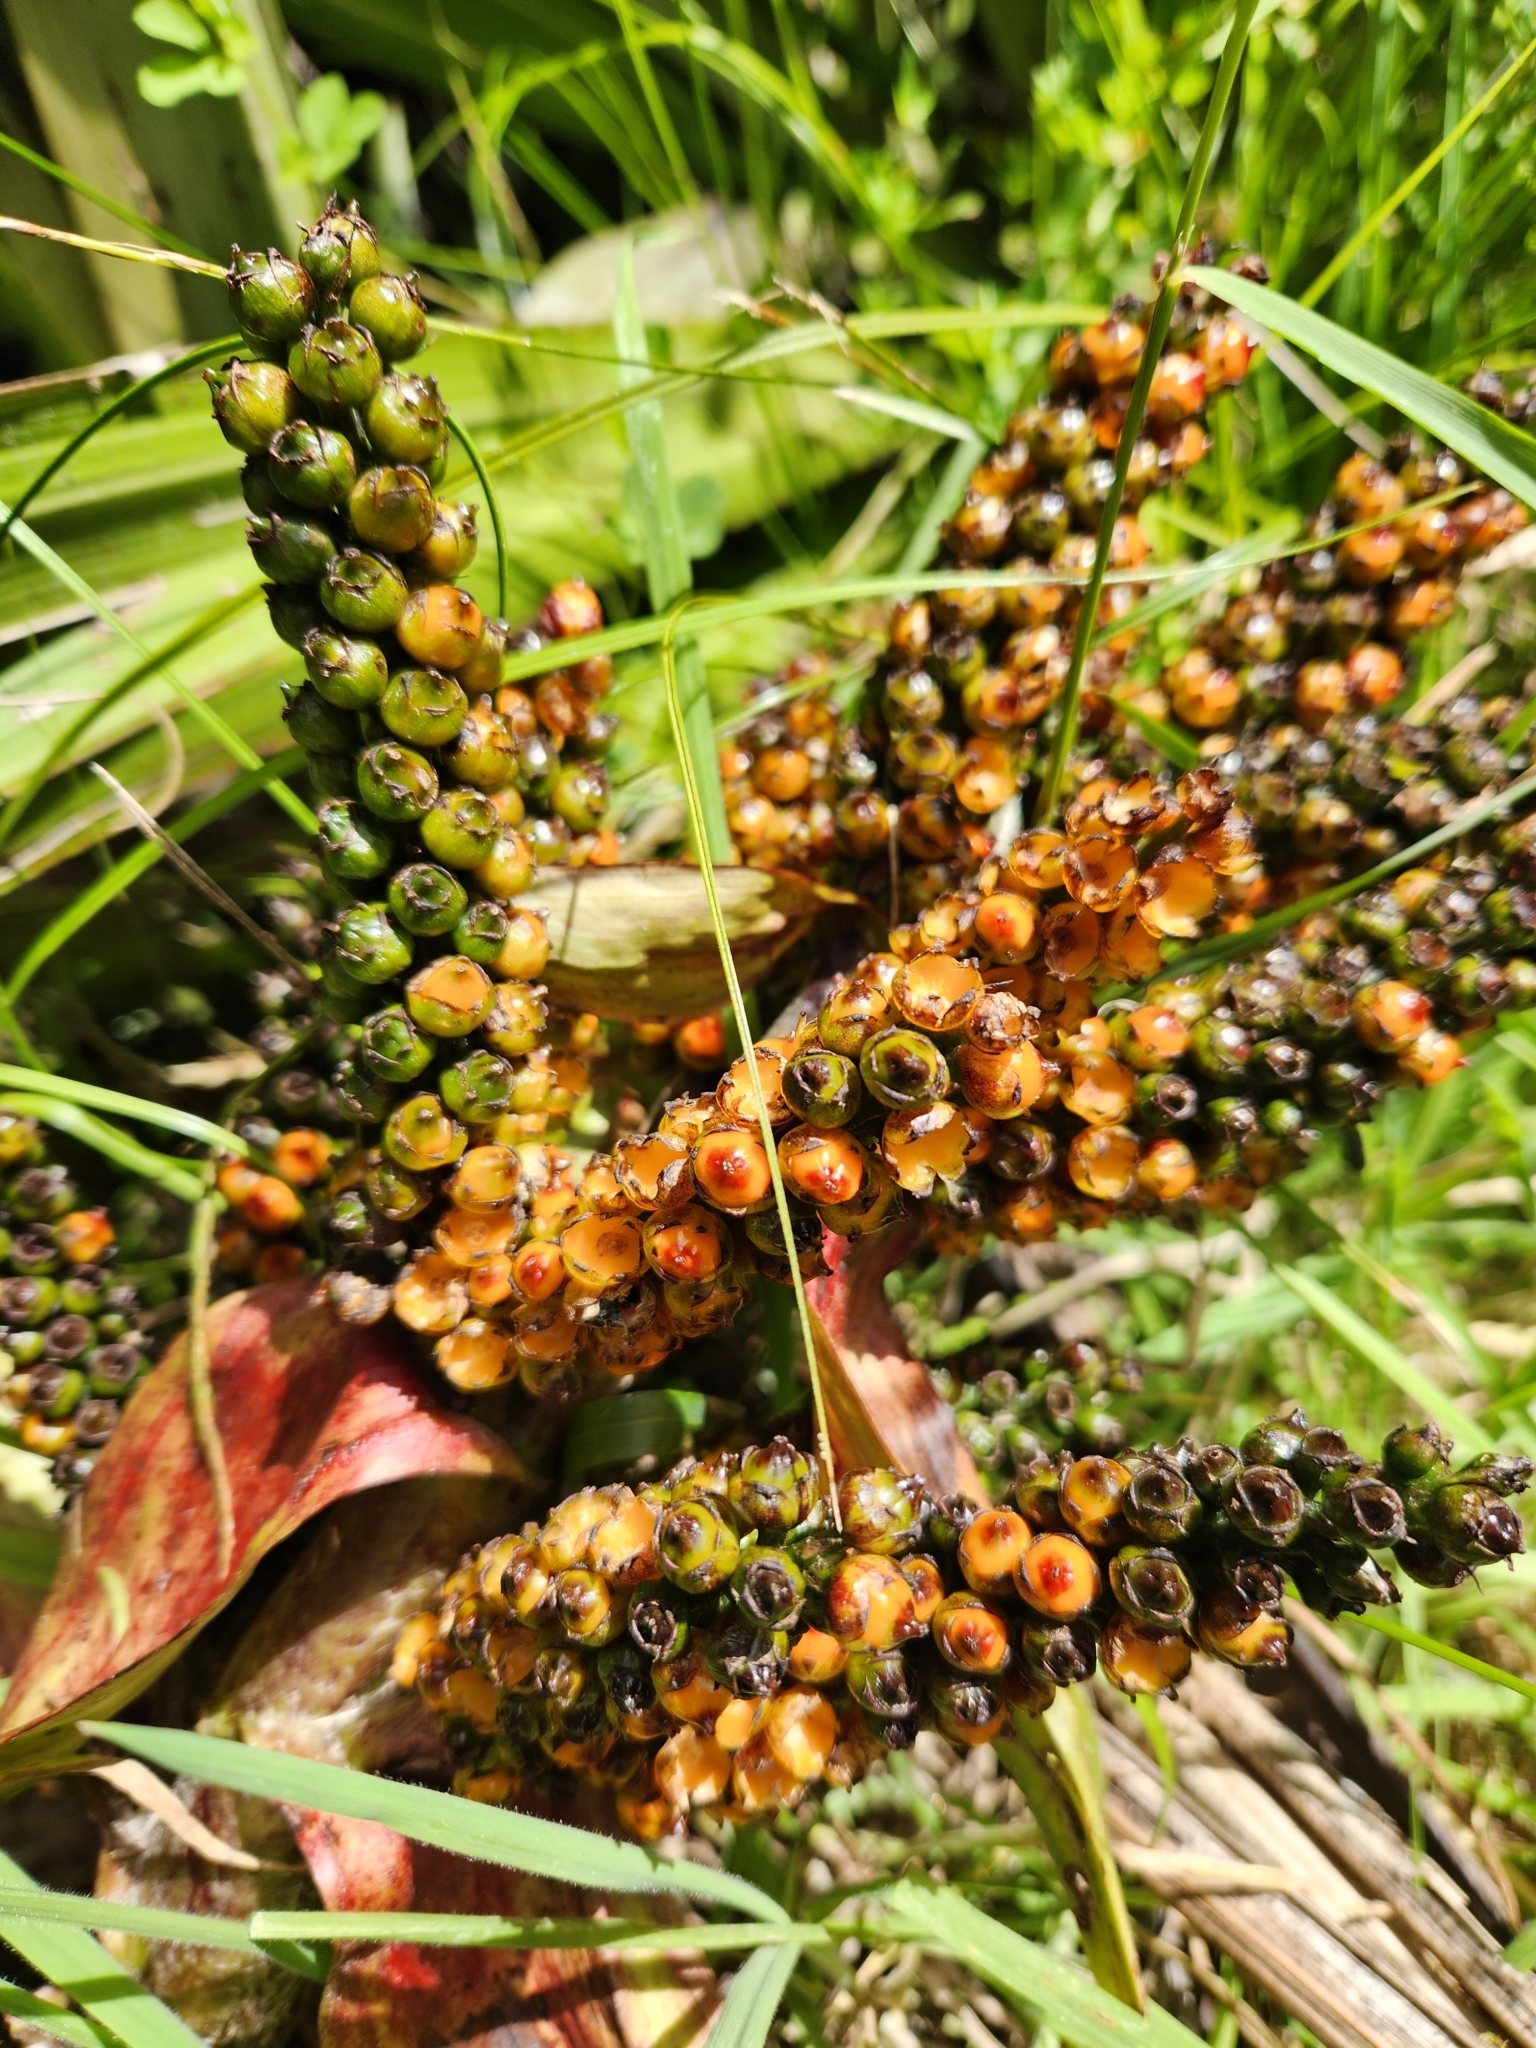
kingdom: Plantae
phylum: Tracheophyta
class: Liliopsida
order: Asparagales
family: Asteliaceae
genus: Astelia
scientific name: Astelia grandis
